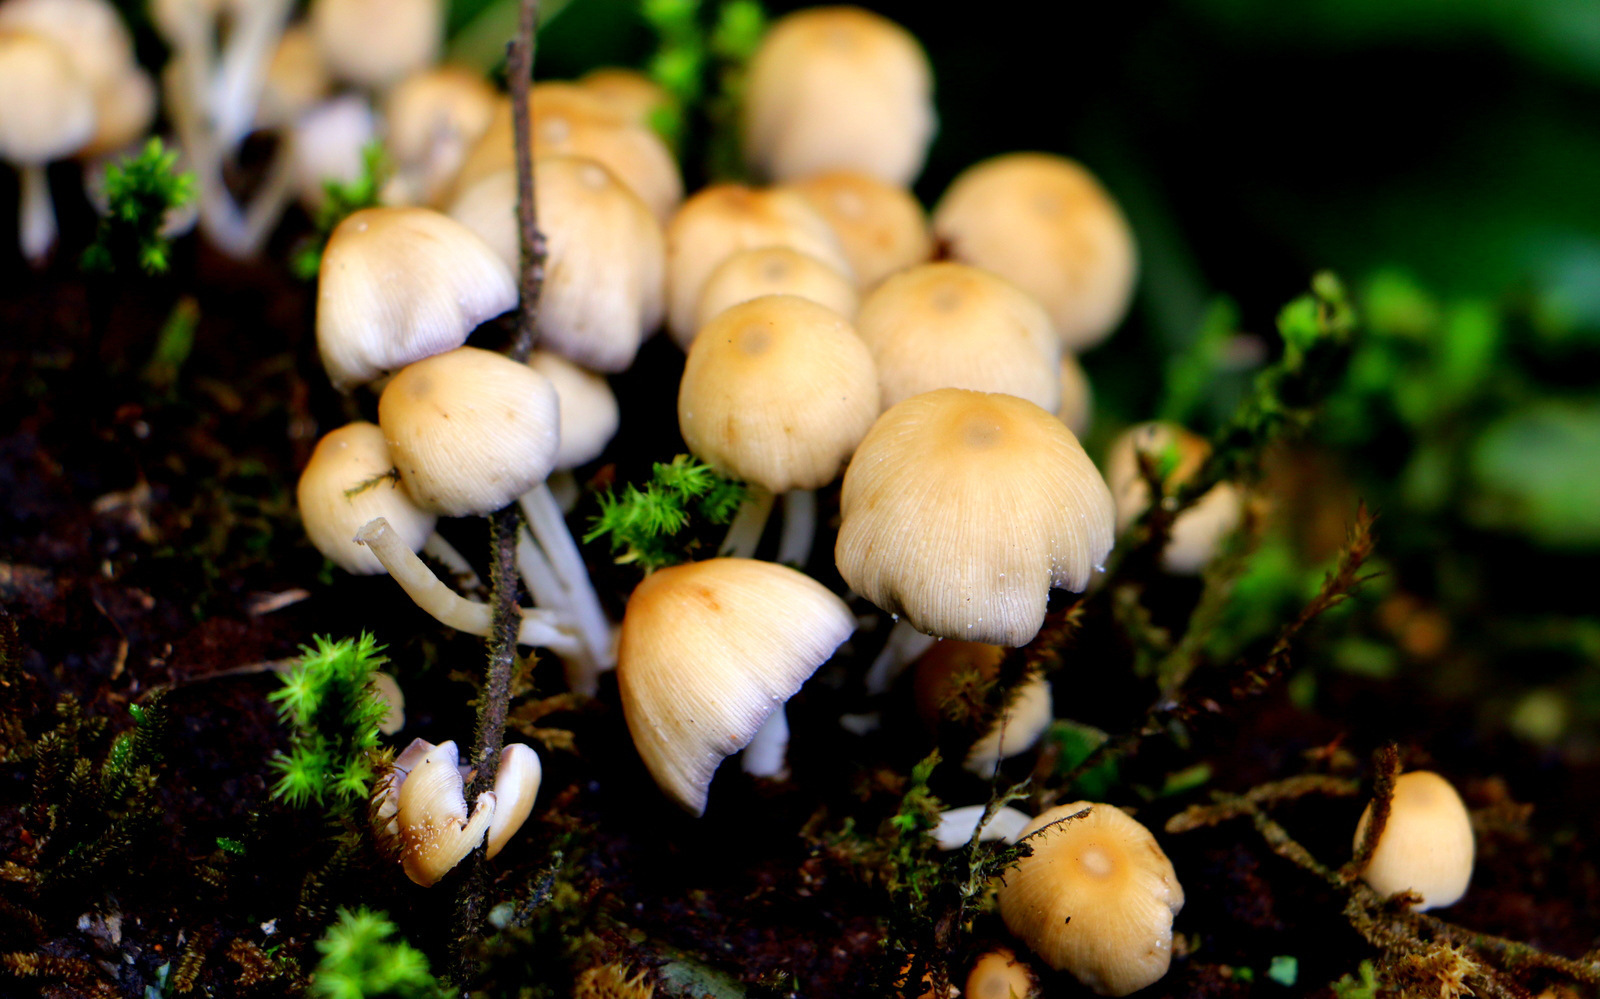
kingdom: Fungi
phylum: Basidiomycota
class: Agaricomycetes
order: Agaricales
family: Psathyrellaceae
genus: Coprinellus
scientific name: Coprinellus micaceus
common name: Glistening ink-cap
